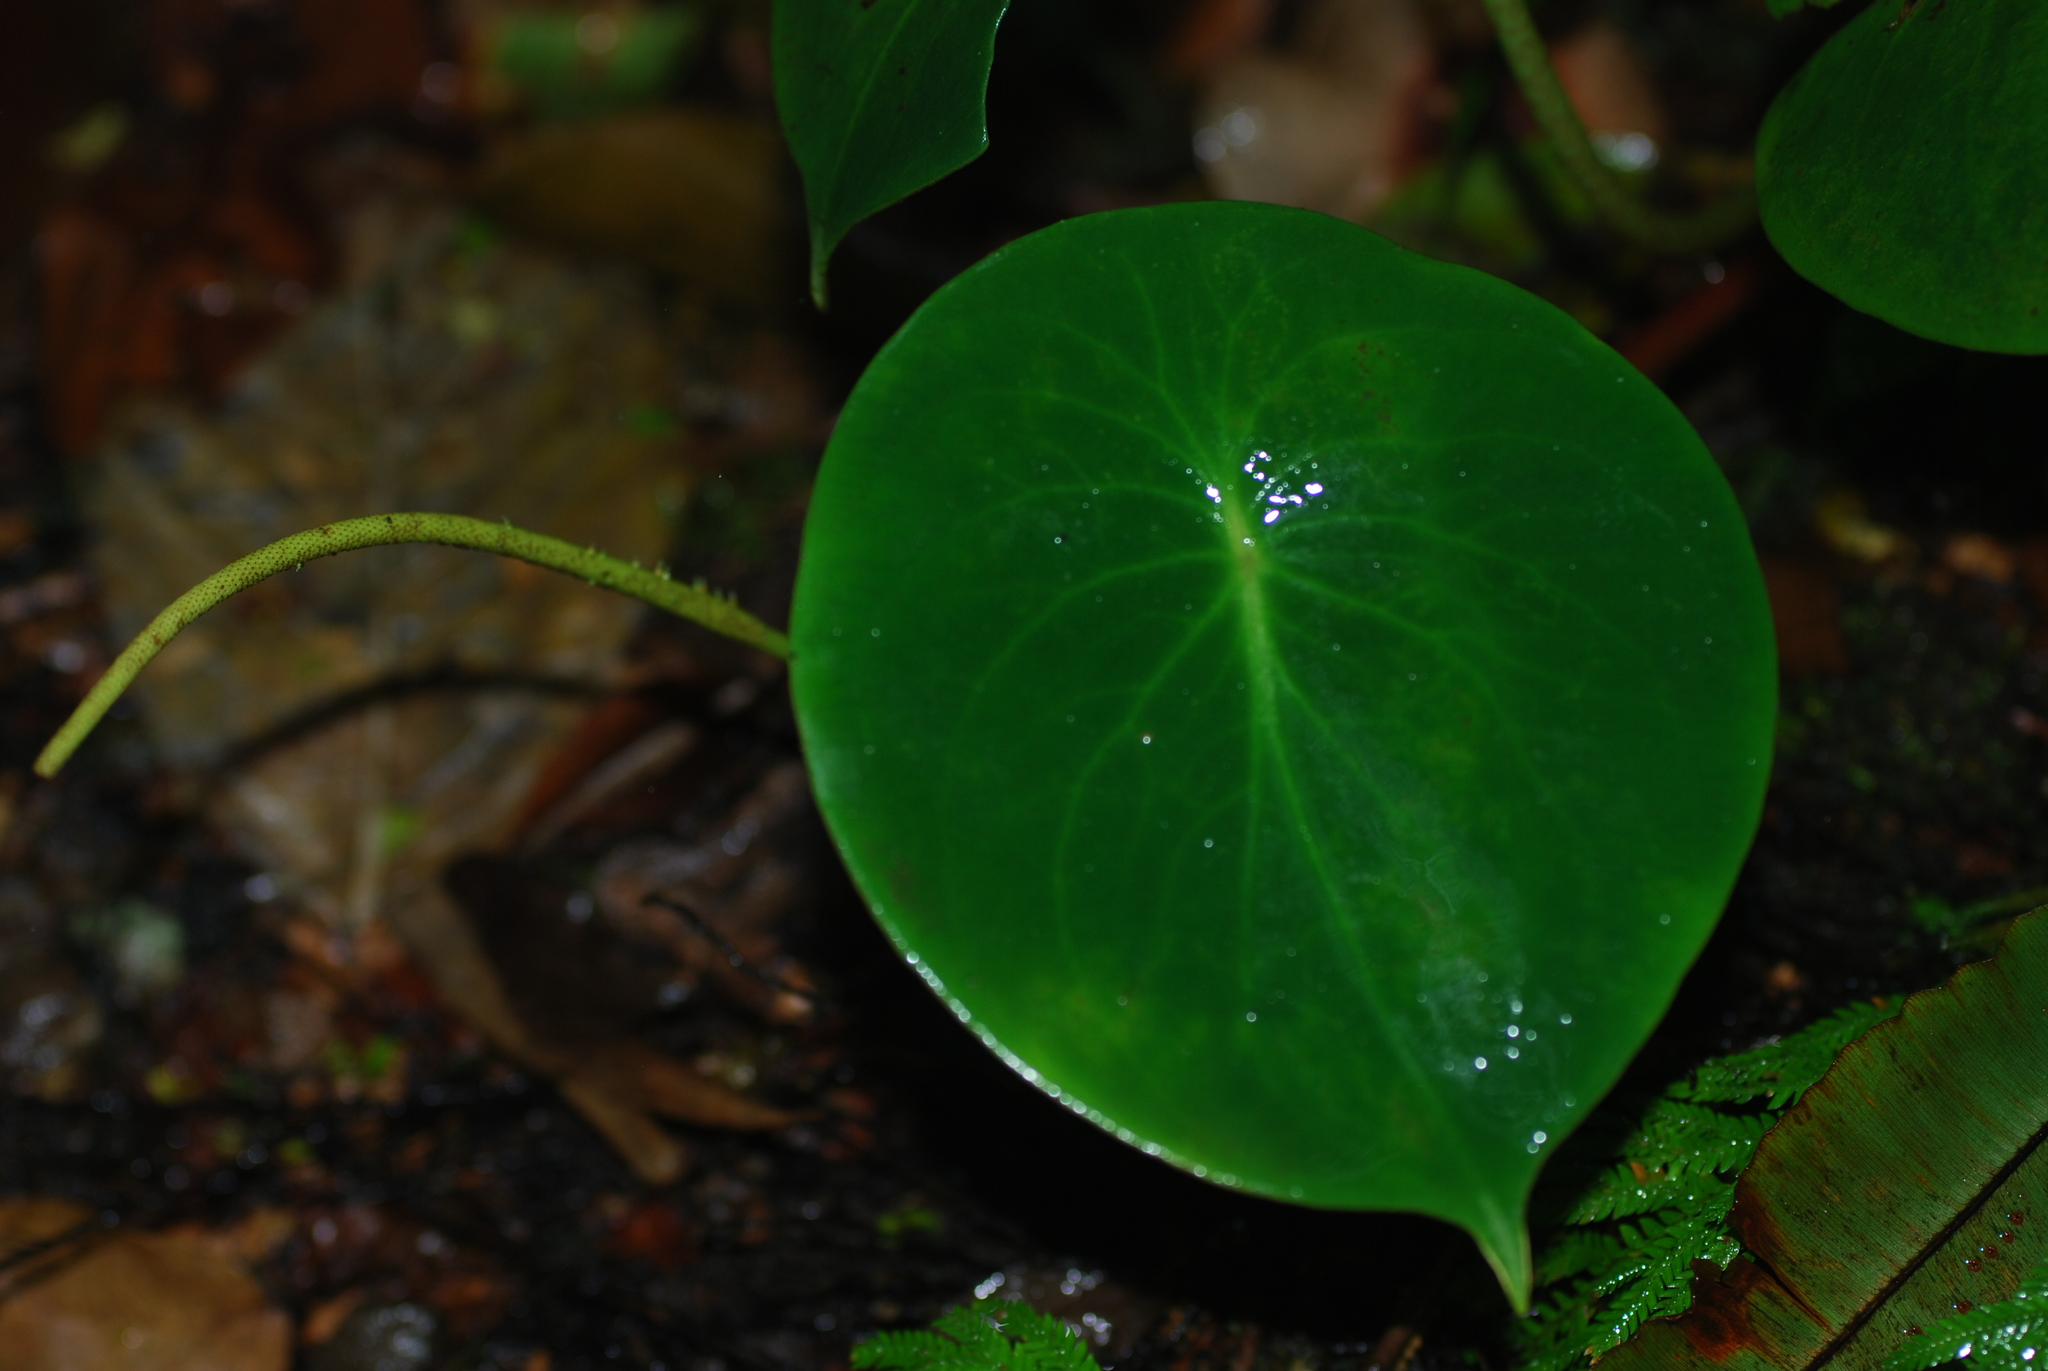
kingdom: Plantae
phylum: Tracheophyta
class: Magnoliopsida
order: Piperales
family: Piperaceae
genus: Peperomia
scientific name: Peperomia hernandiifolia
